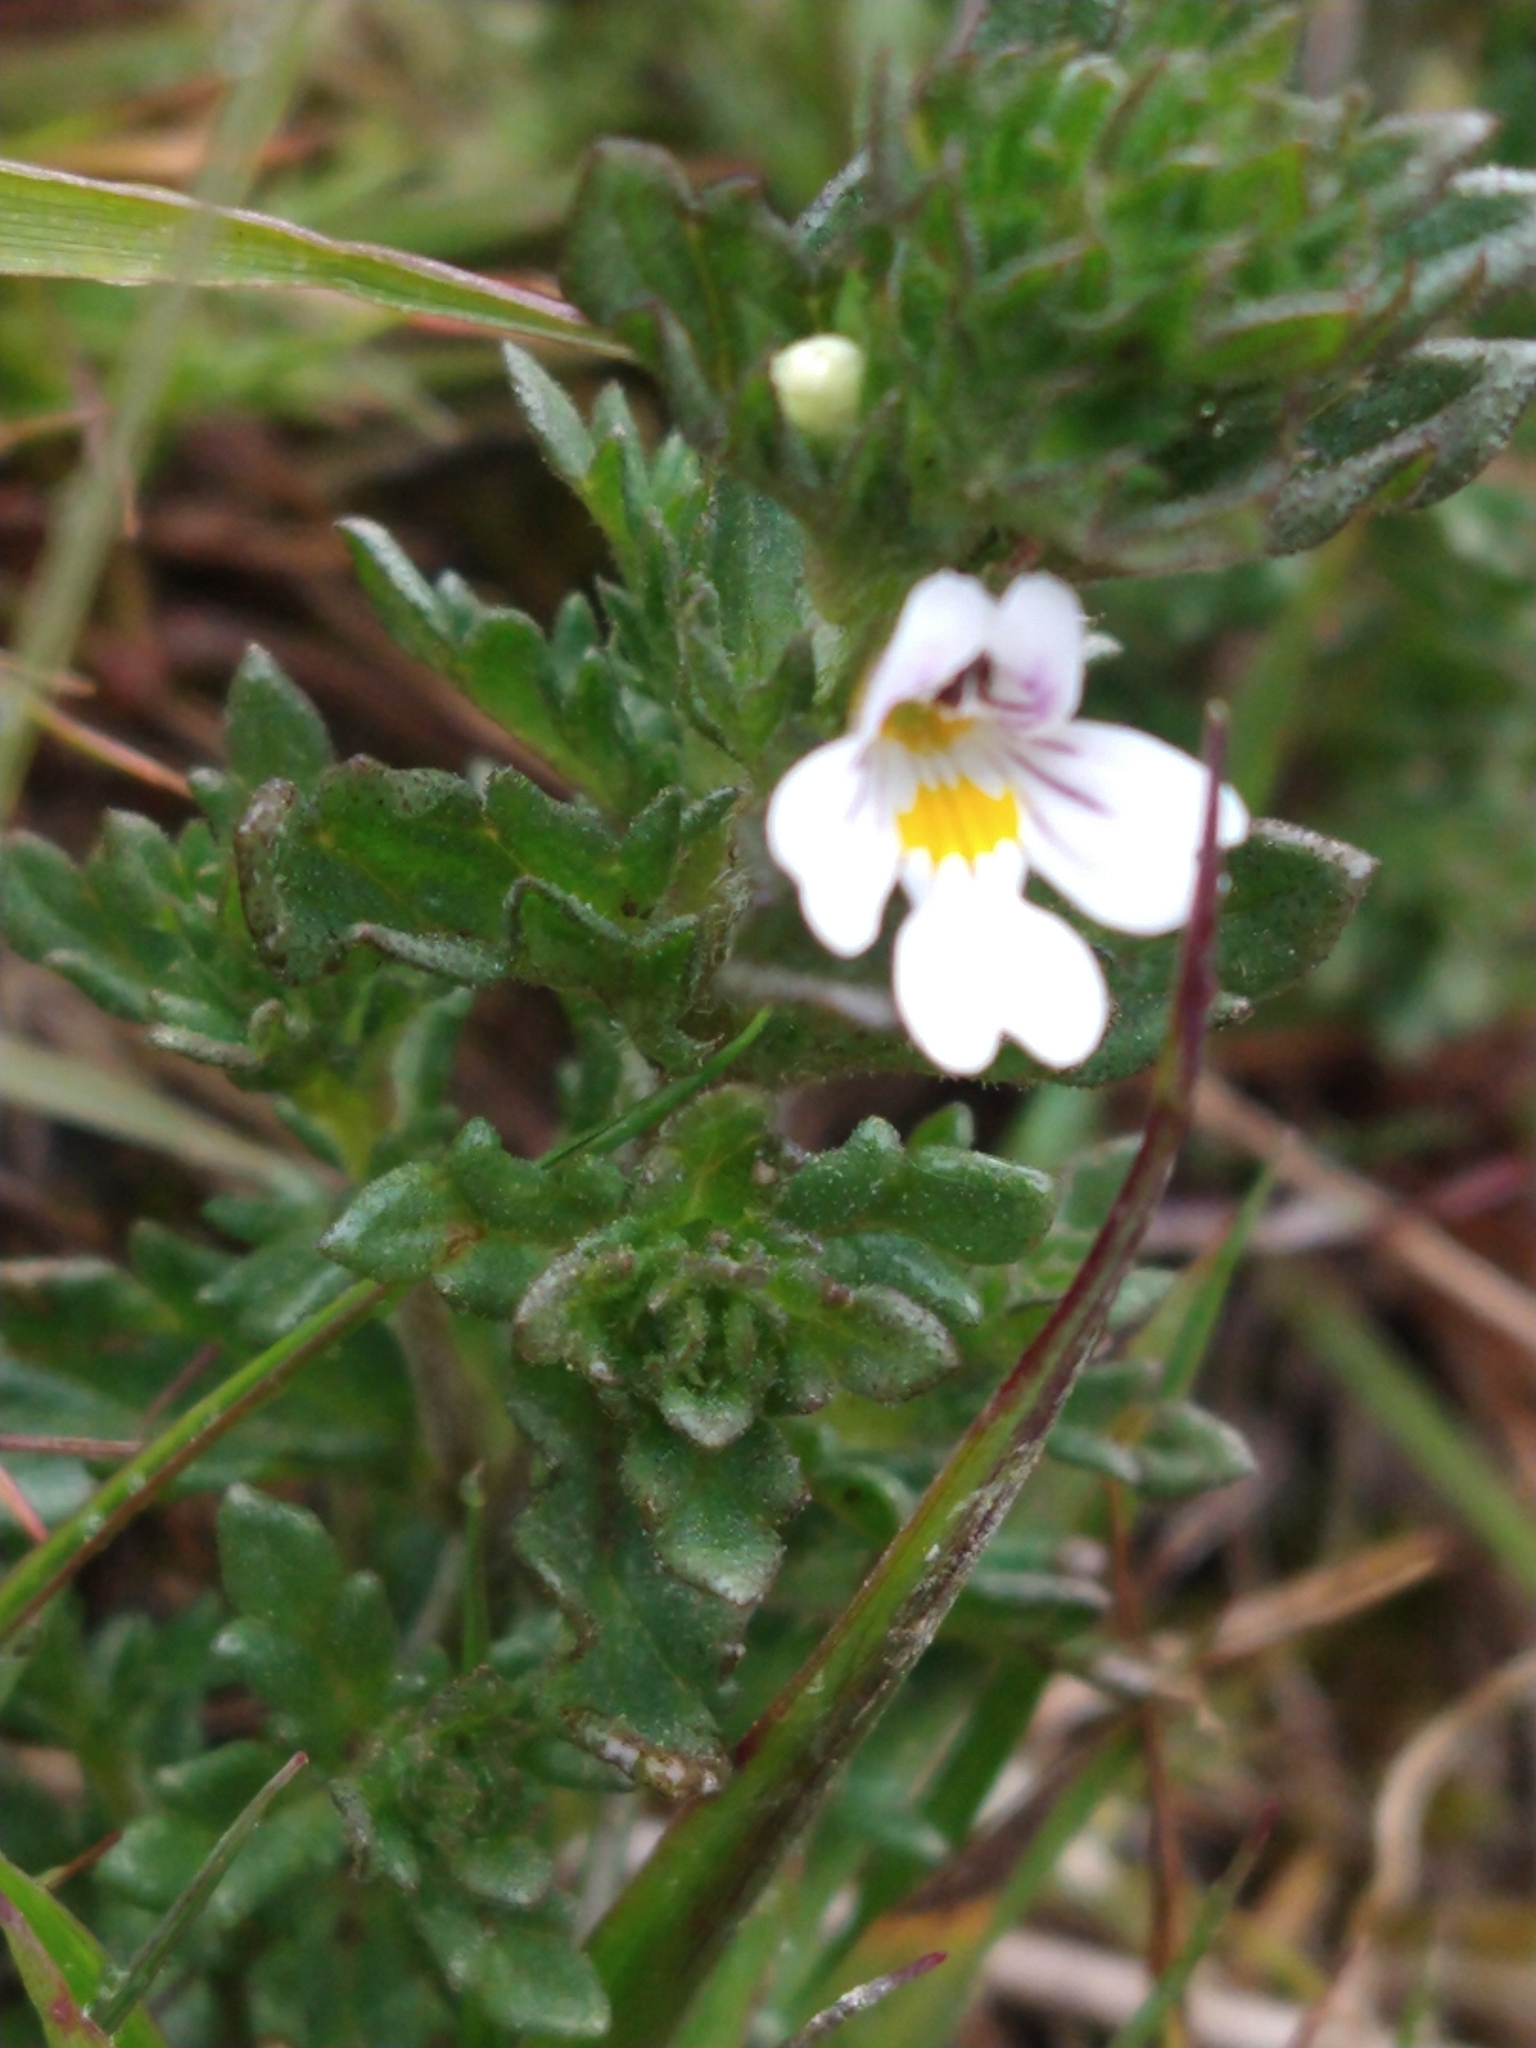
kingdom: Plantae
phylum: Tracheophyta
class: Magnoliopsida
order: Lamiales
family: Orobanchaceae
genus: Euphrasia
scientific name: Euphrasia officinalis
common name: Eyebright
